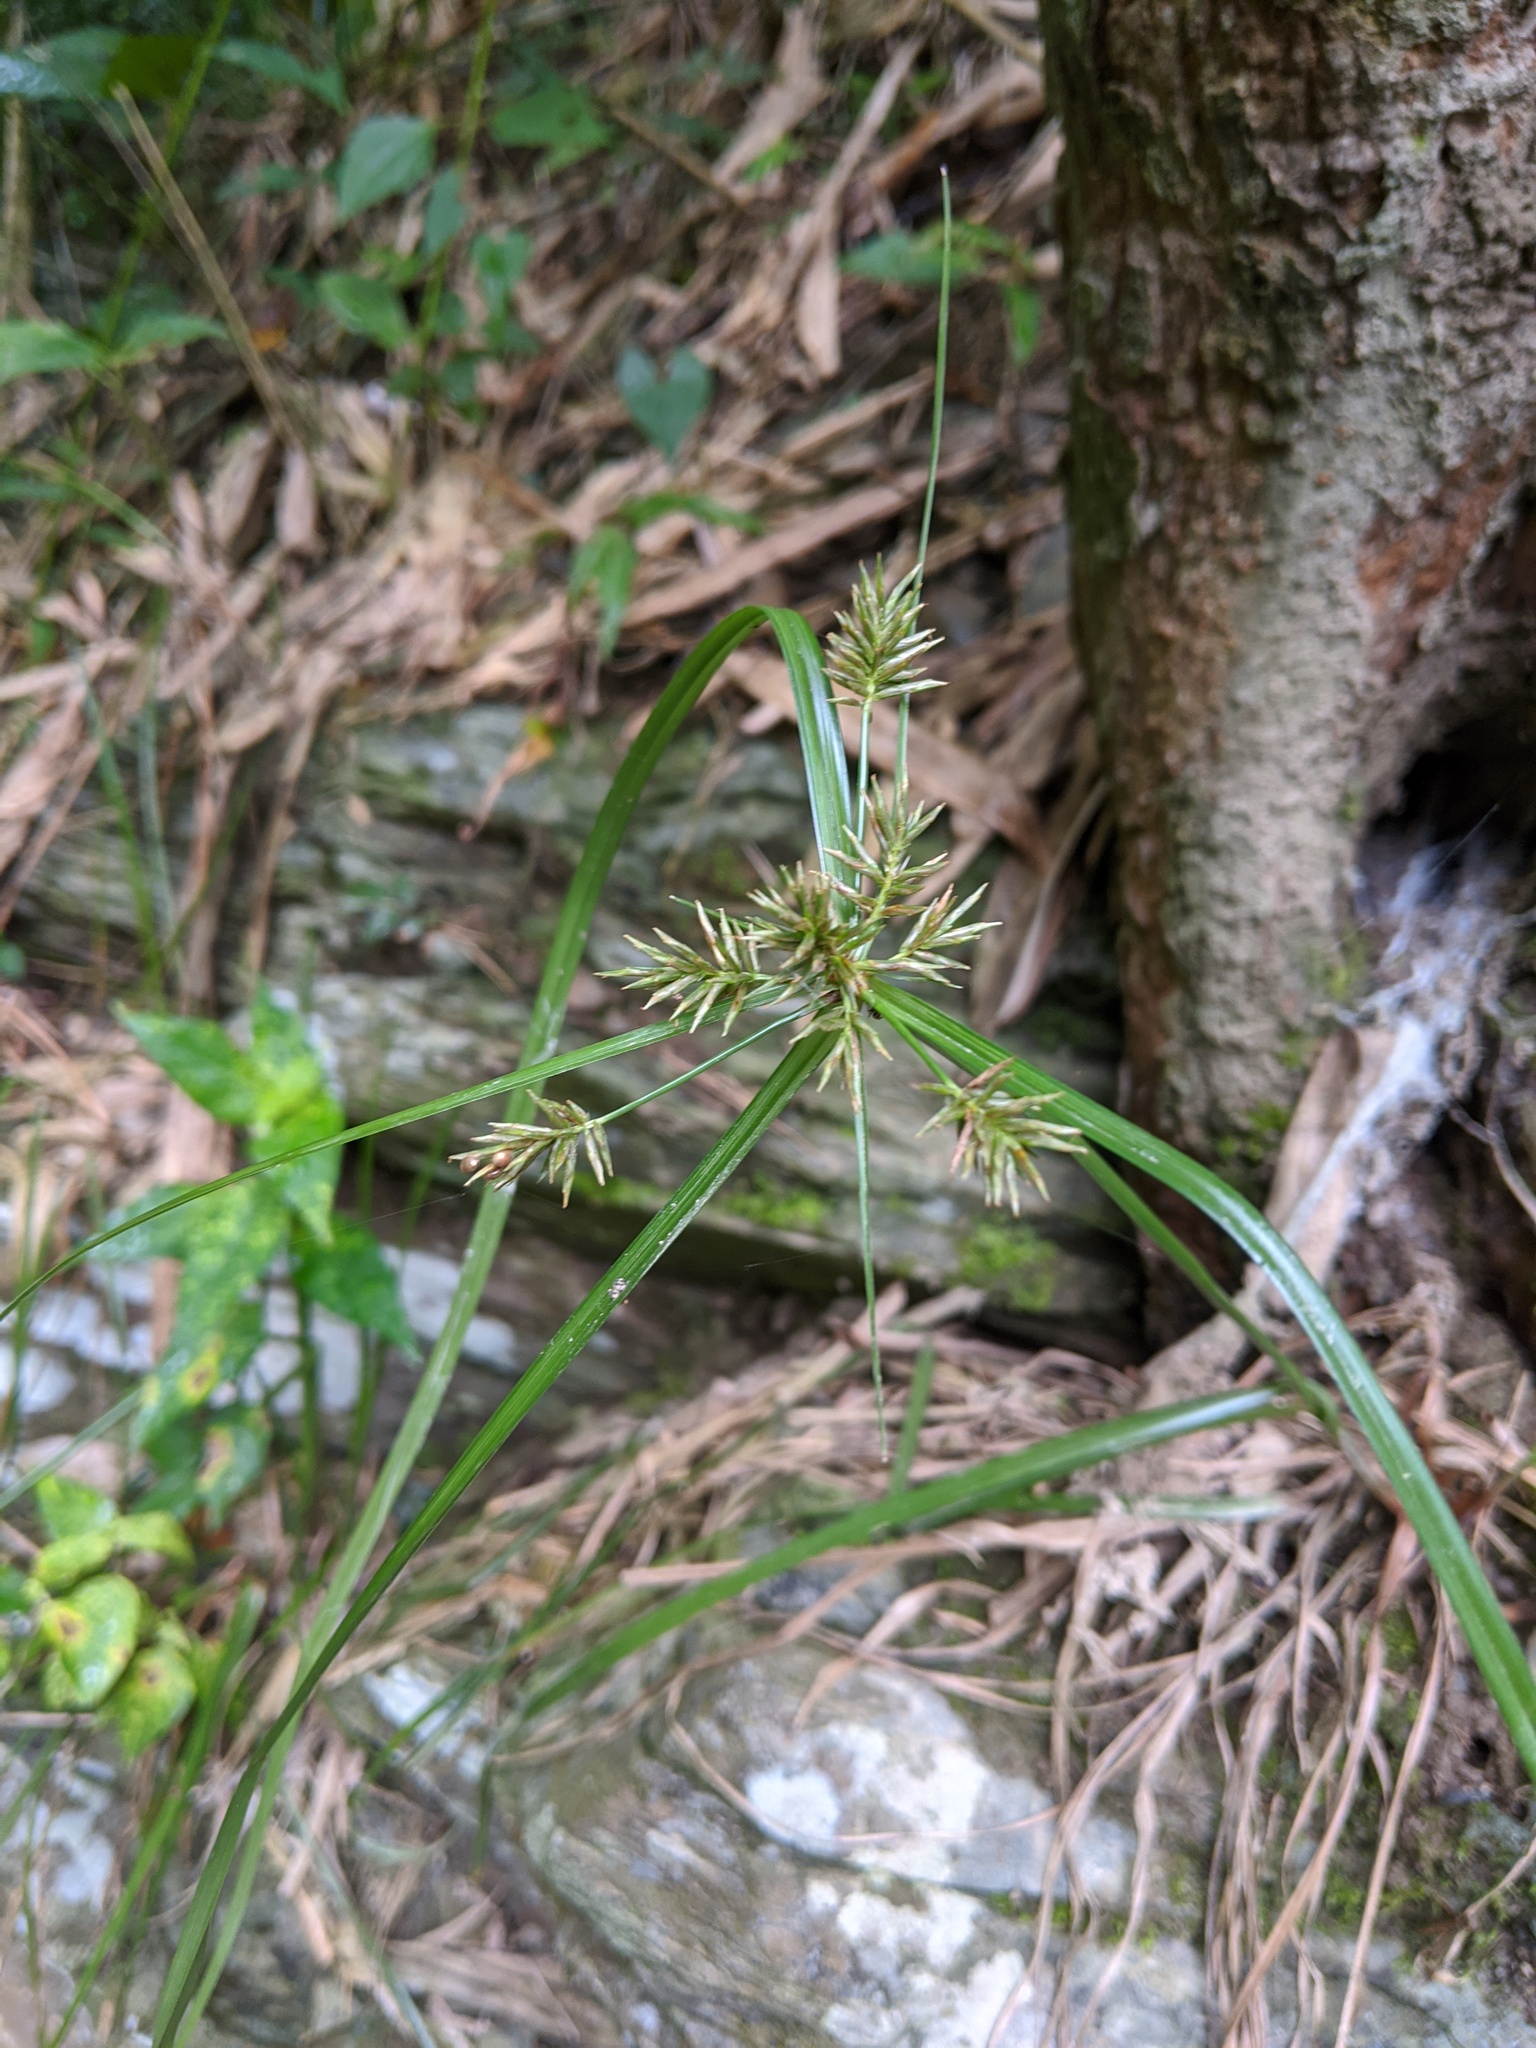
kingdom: Plantae
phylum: Tracheophyta
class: Liliopsida
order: Poales
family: Cyperaceae
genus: Cyperus
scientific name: Cyperus cyperoides
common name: Pacific island flat sedge
